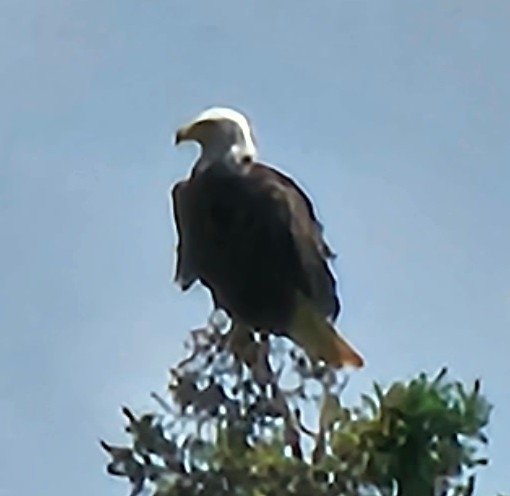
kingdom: Animalia
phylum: Chordata
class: Aves
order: Accipitriformes
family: Accipitridae
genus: Haliaeetus
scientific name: Haliaeetus leucocephalus
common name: Bald eagle
